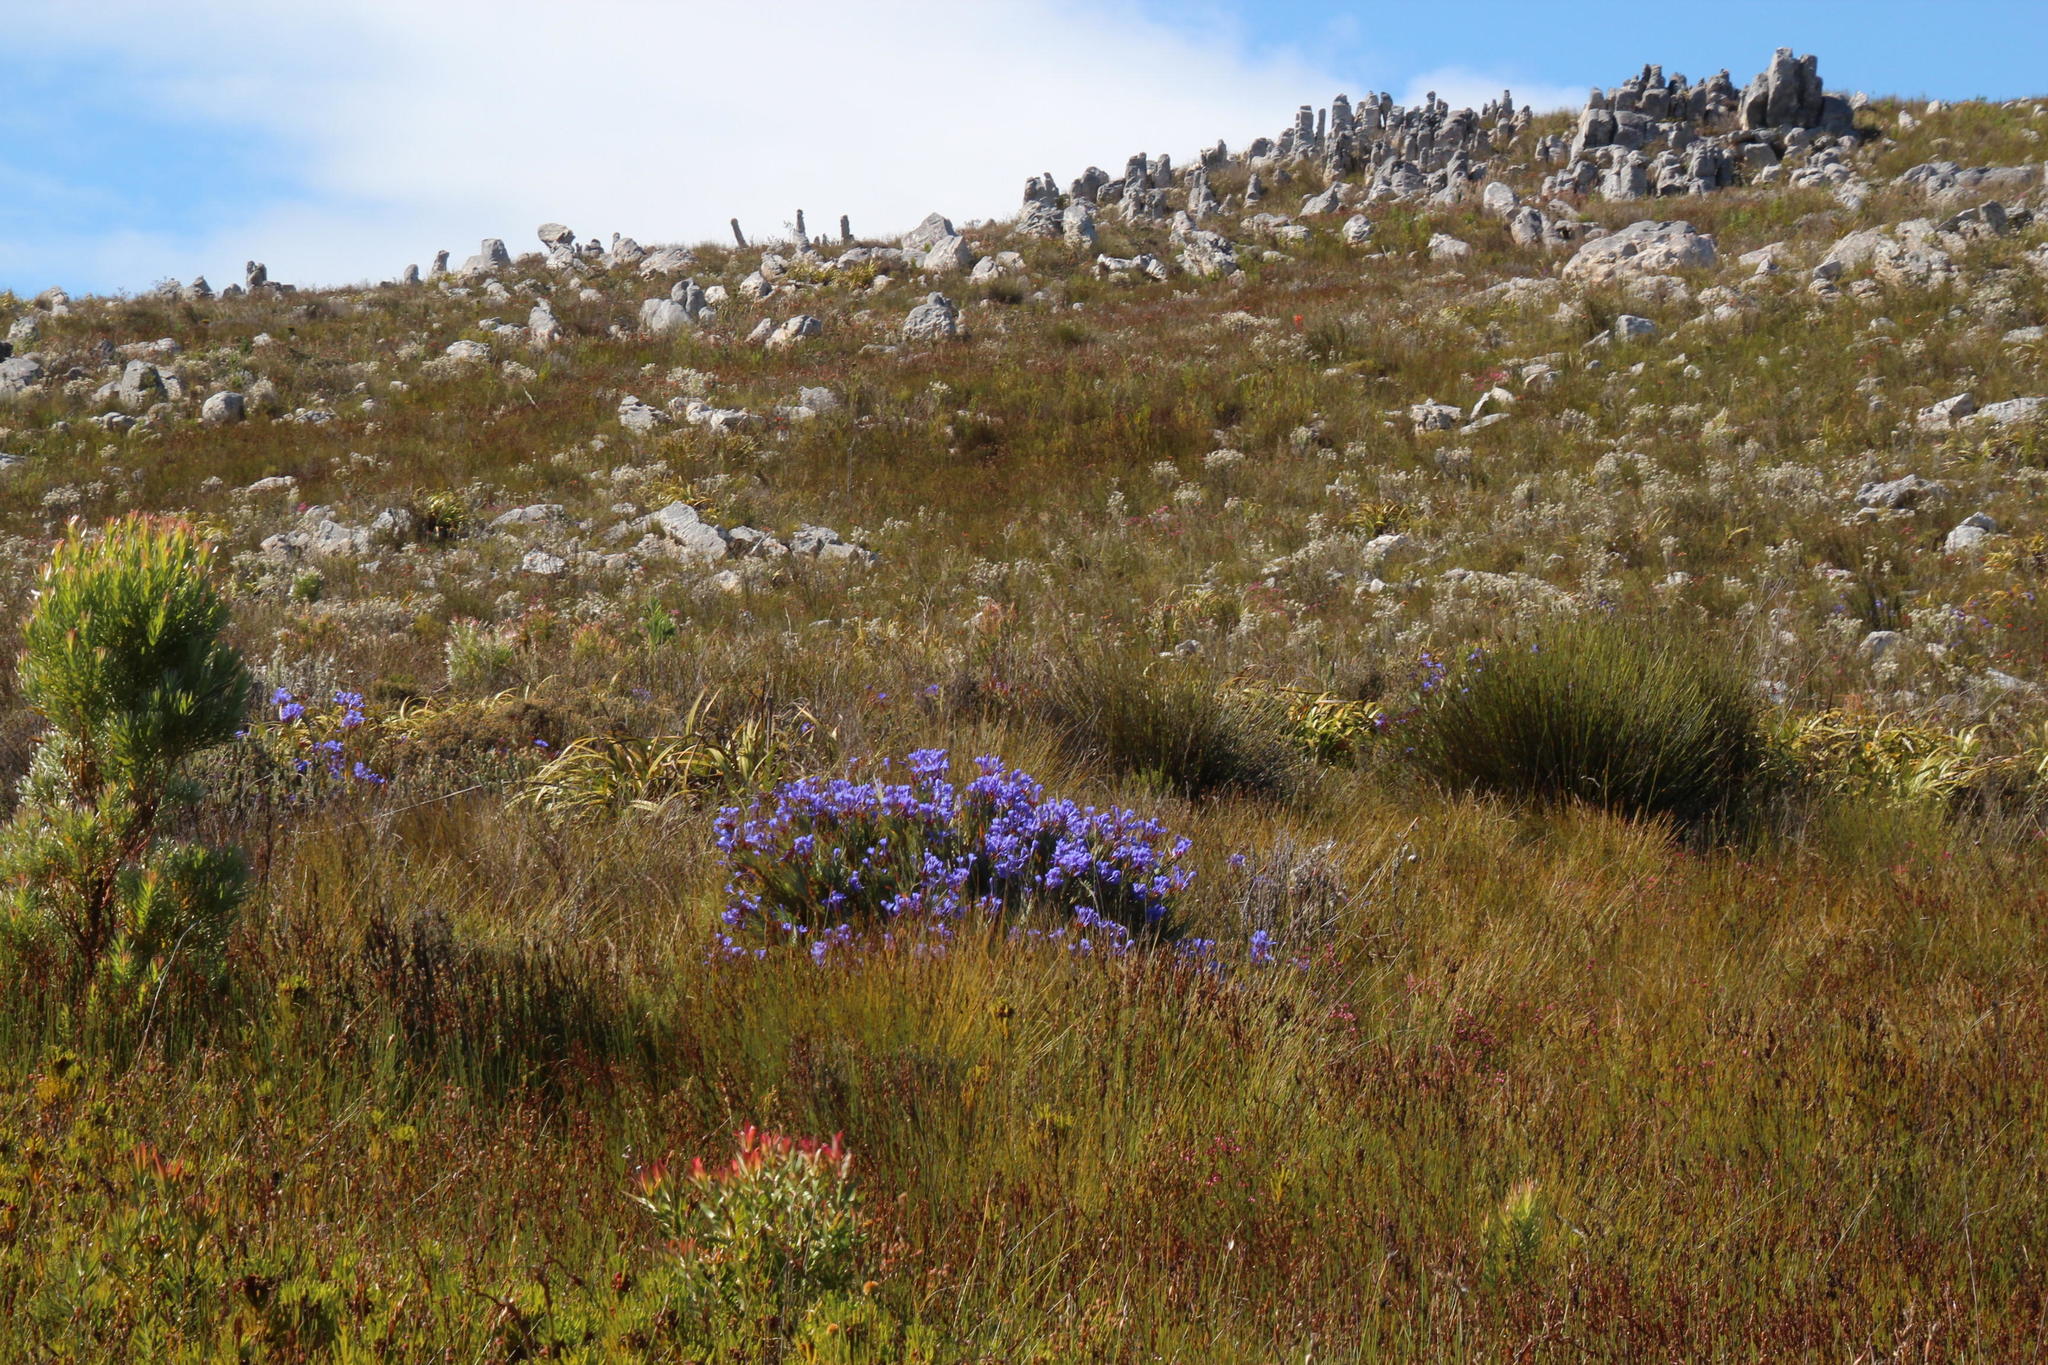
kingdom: Plantae
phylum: Tracheophyta
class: Liliopsida
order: Asparagales
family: Iridaceae
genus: Nivenia
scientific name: Nivenia stokoei
